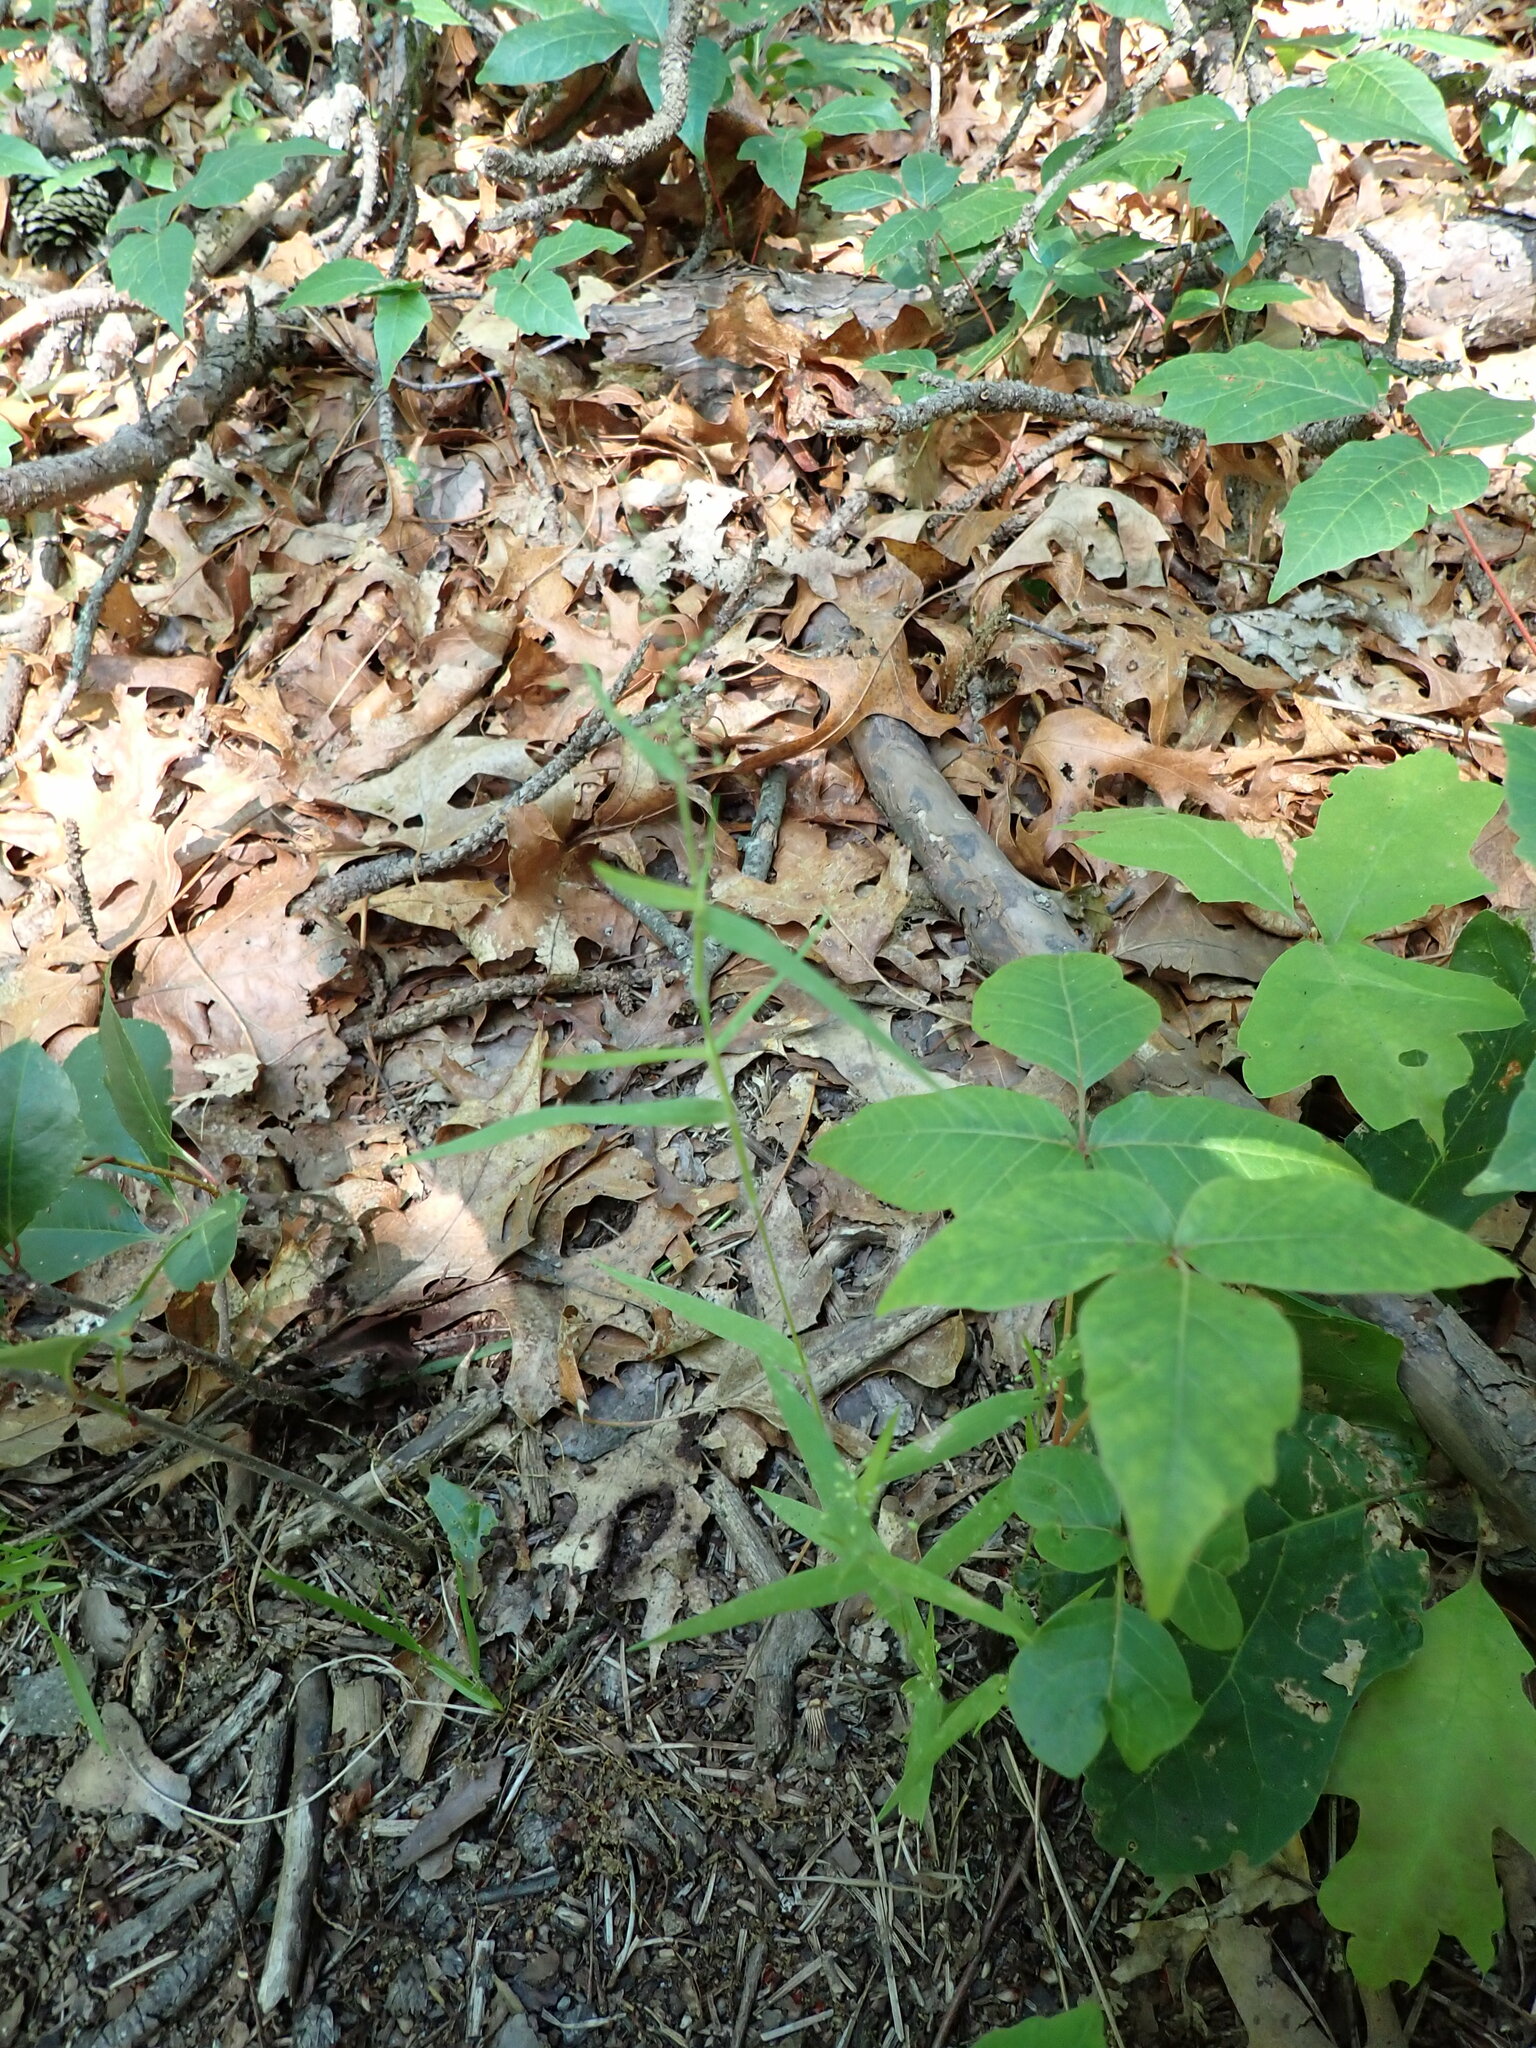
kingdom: Plantae
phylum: Tracheophyta
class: Liliopsida
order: Poales
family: Poaceae
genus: Dichanthelium
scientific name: Dichanthelium acuminatum
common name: Hairy panic grass
